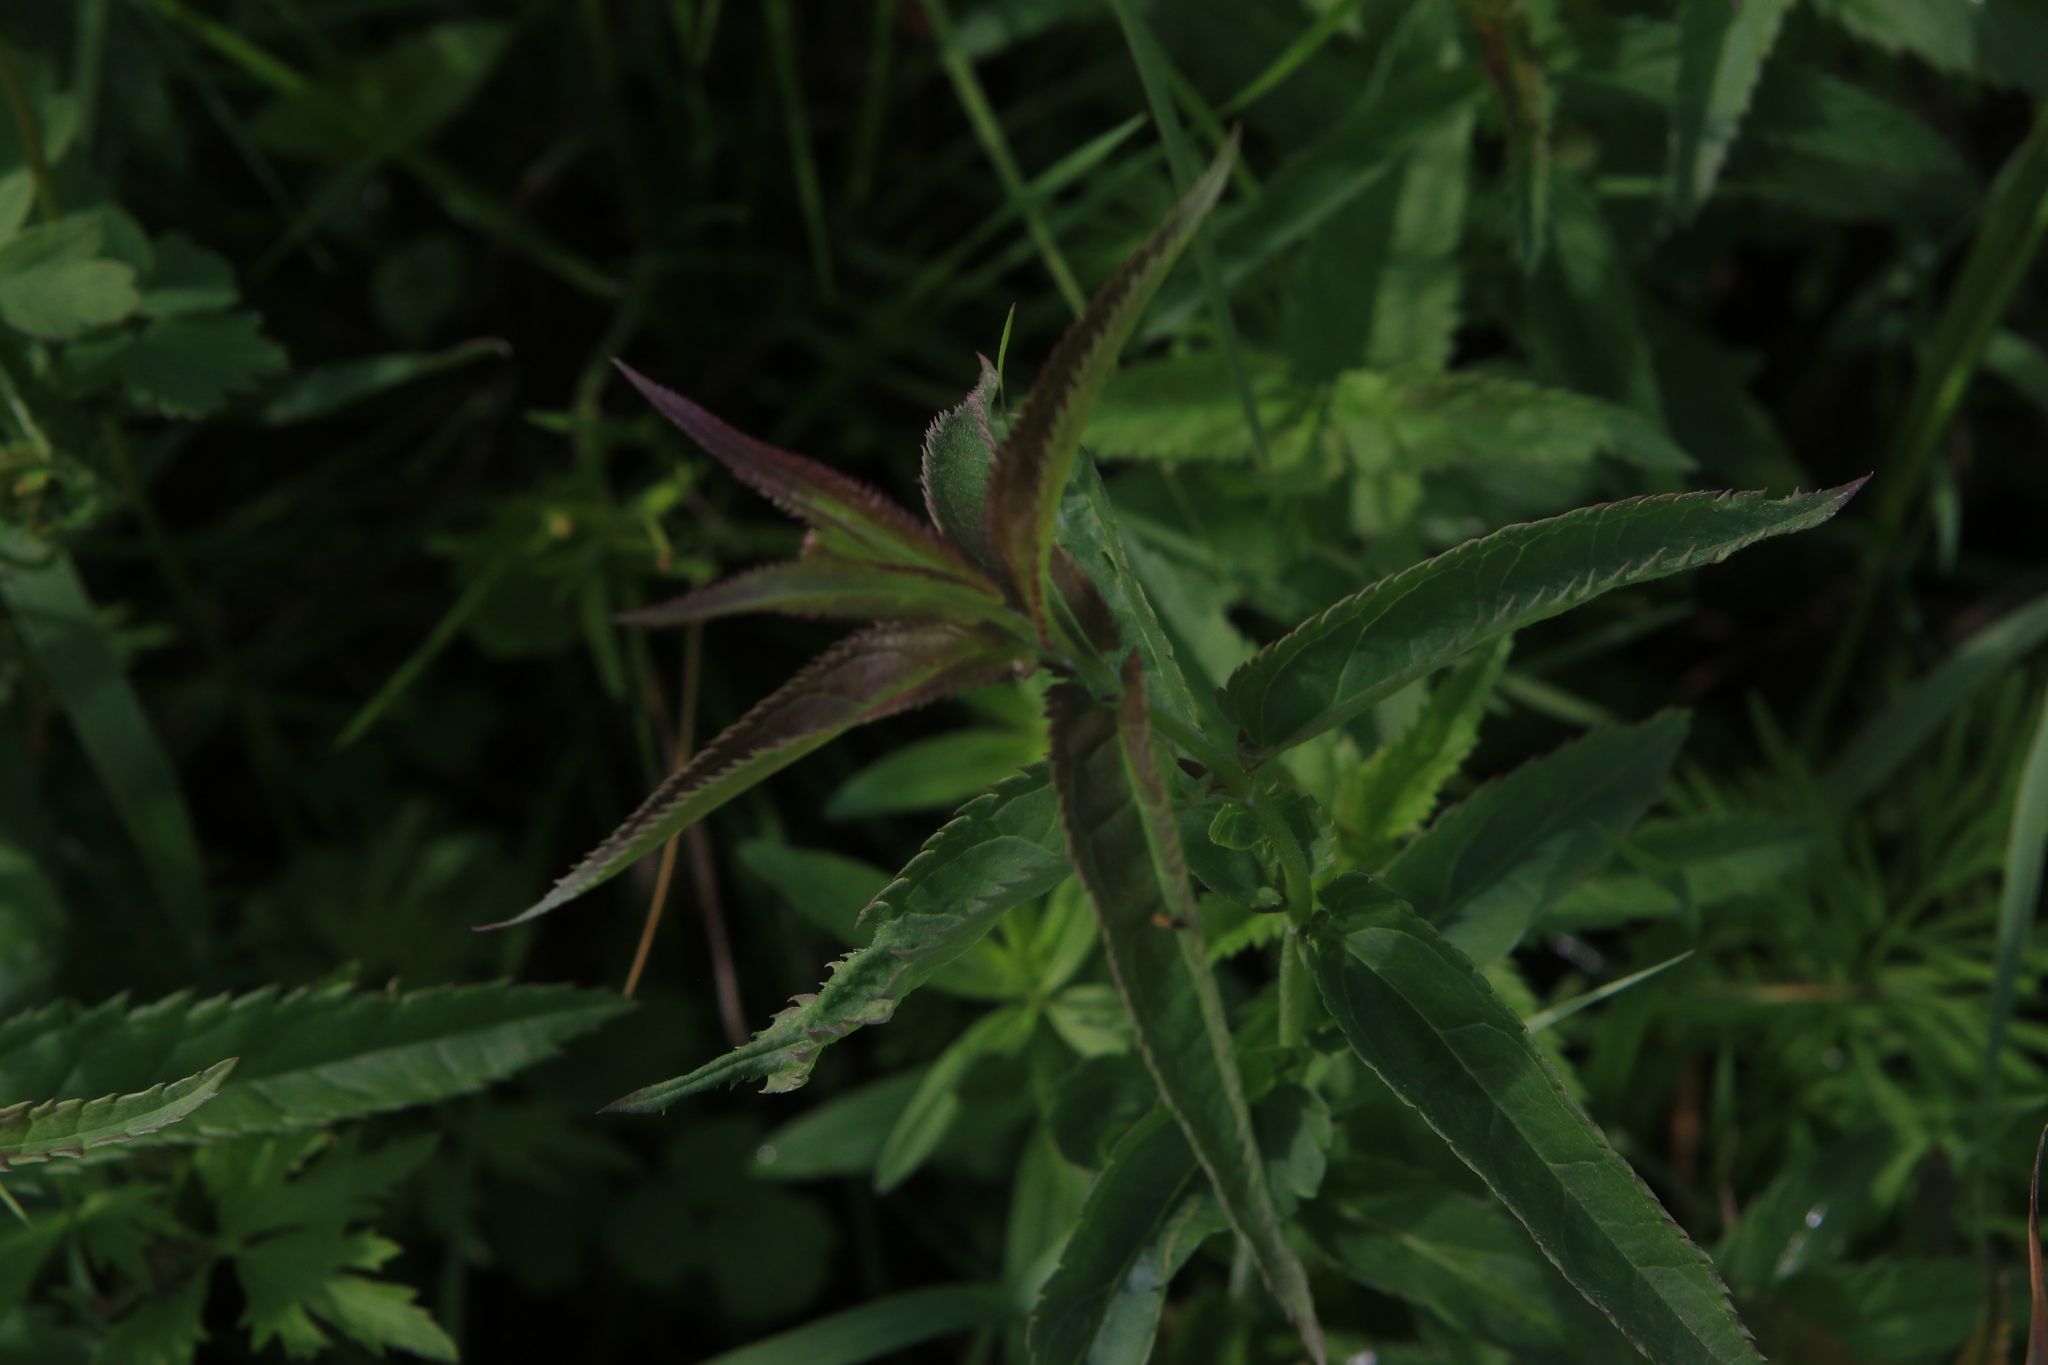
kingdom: Plantae
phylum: Tracheophyta
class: Magnoliopsida
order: Lamiales
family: Plantaginaceae
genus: Veronica
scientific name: Veronica longifolia
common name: Garden speedwell
